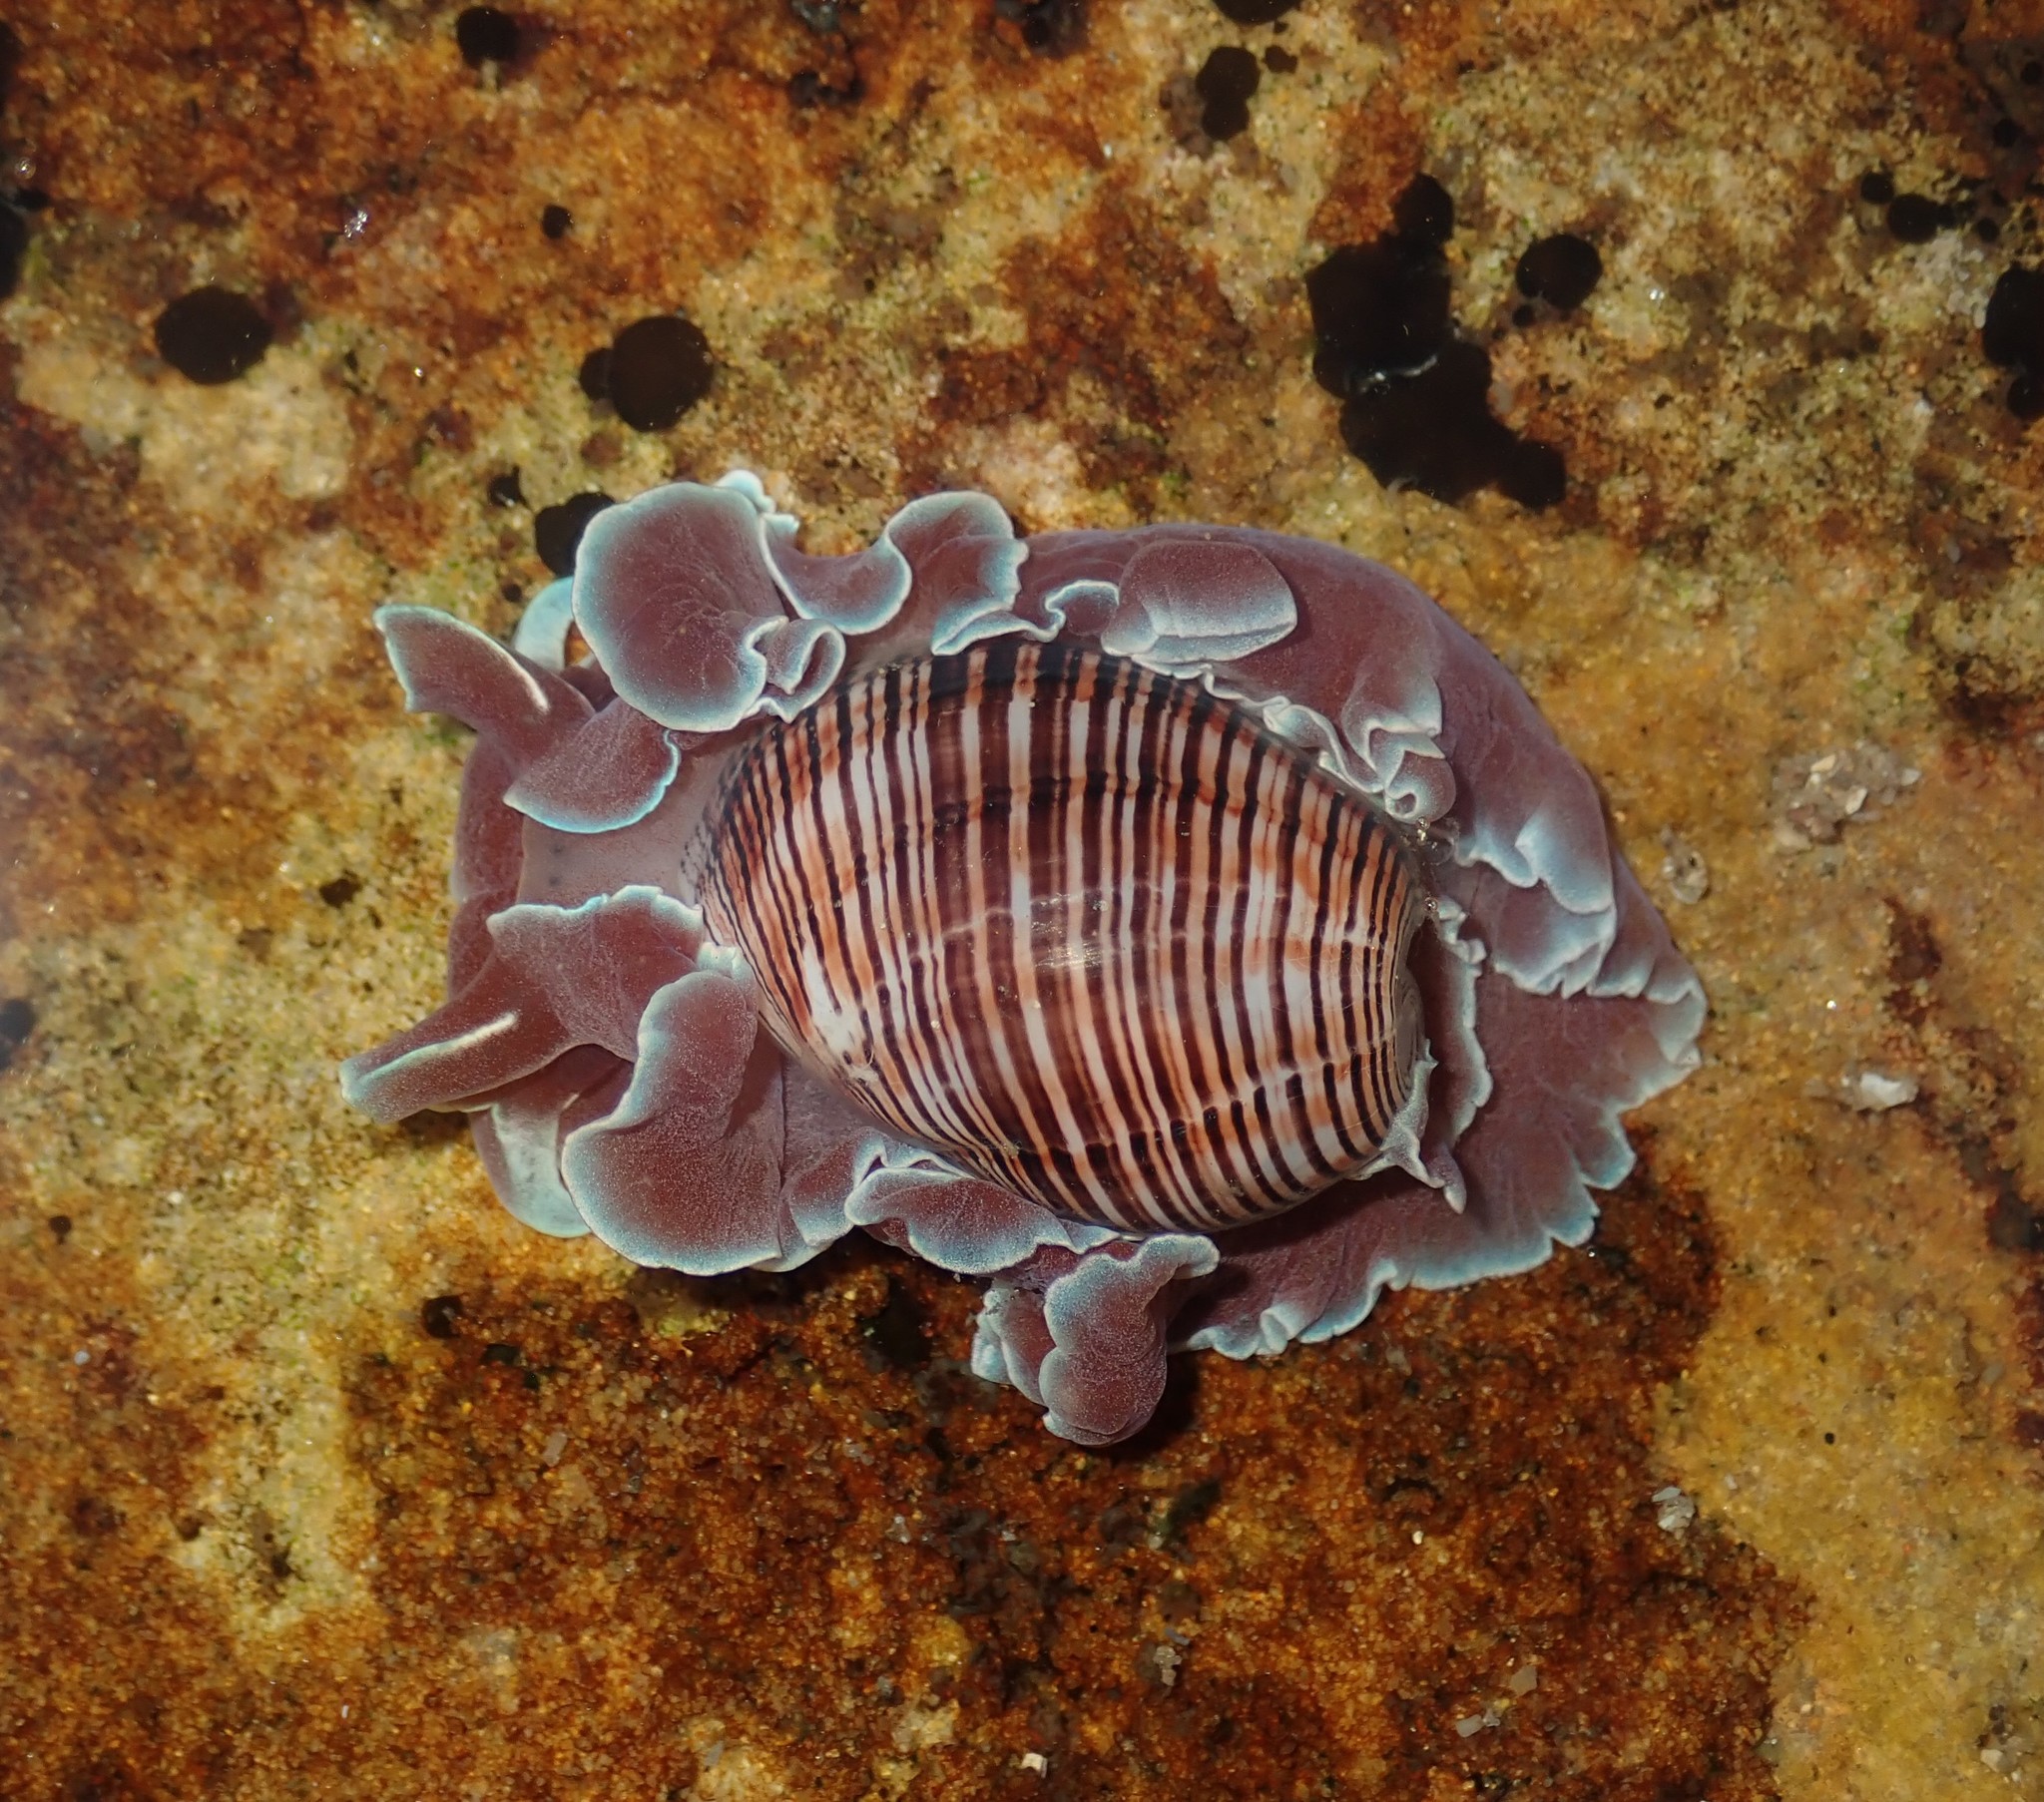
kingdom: Animalia
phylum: Mollusca
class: Gastropoda
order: Cephalaspidea
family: Aplustridae
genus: Hydatina
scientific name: Hydatina physis
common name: Brown-line paperbubble
